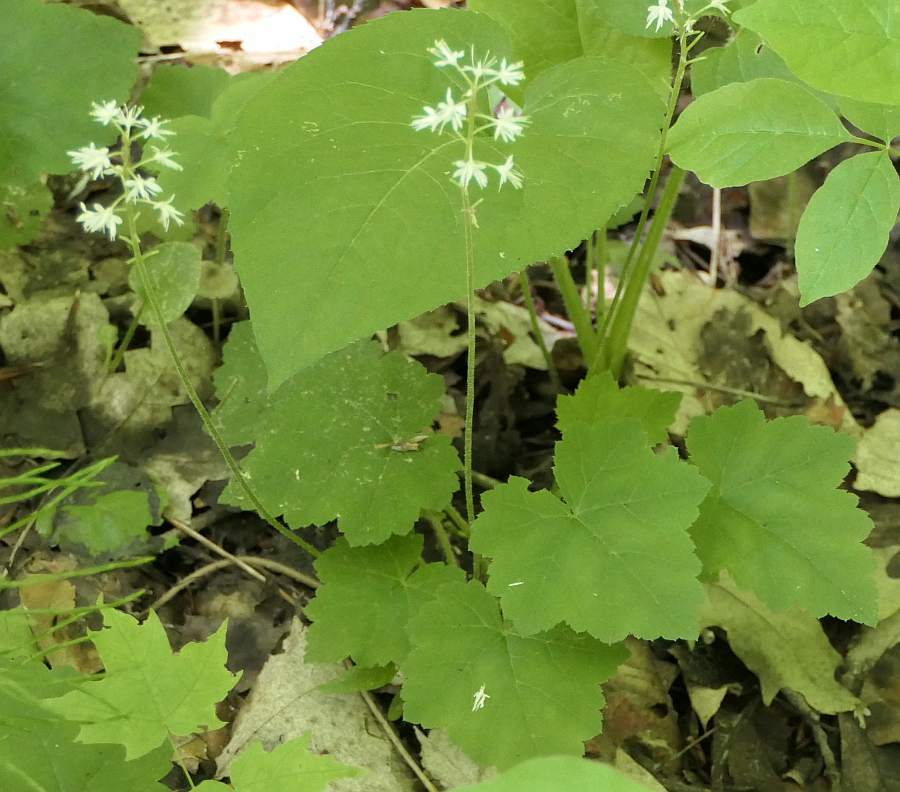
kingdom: Plantae
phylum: Tracheophyta
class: Magnoliopsida
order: Saxifragales
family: Saxifragaceae
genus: Tiarella
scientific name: Tiarella stolonifera
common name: Stoloniferous foamflower
